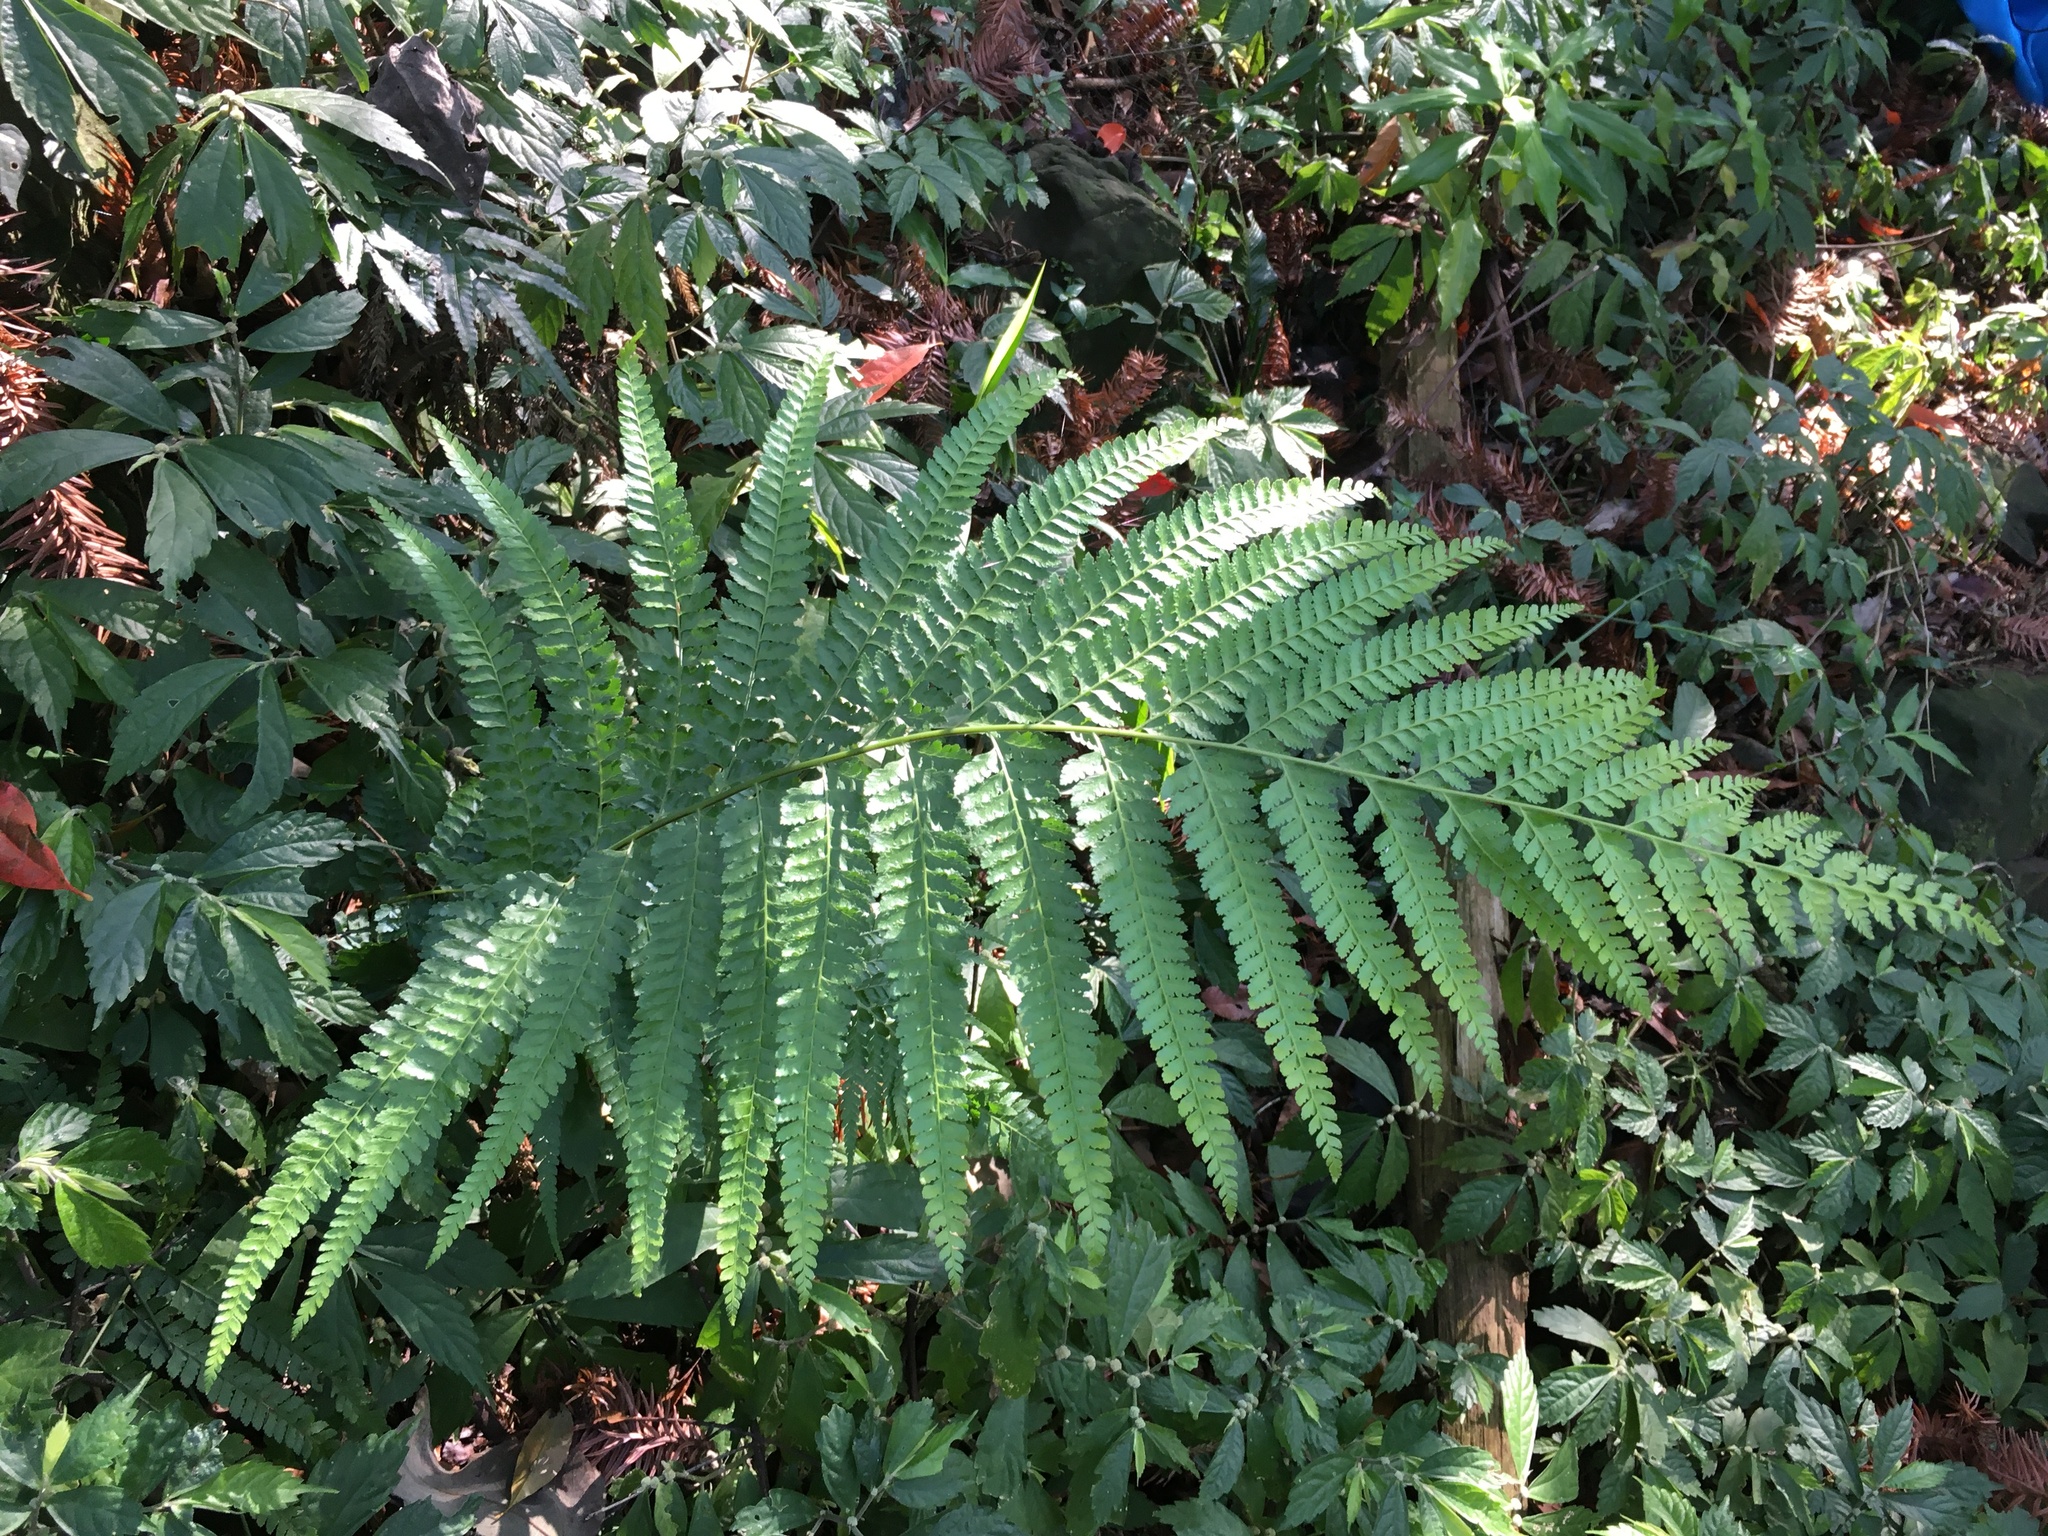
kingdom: Plantae
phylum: Tracheophyta
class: Polypodiopsida
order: Polypodiales
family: Dennstaedtiaceae
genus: Microlepia
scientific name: Microlepia strigosa
